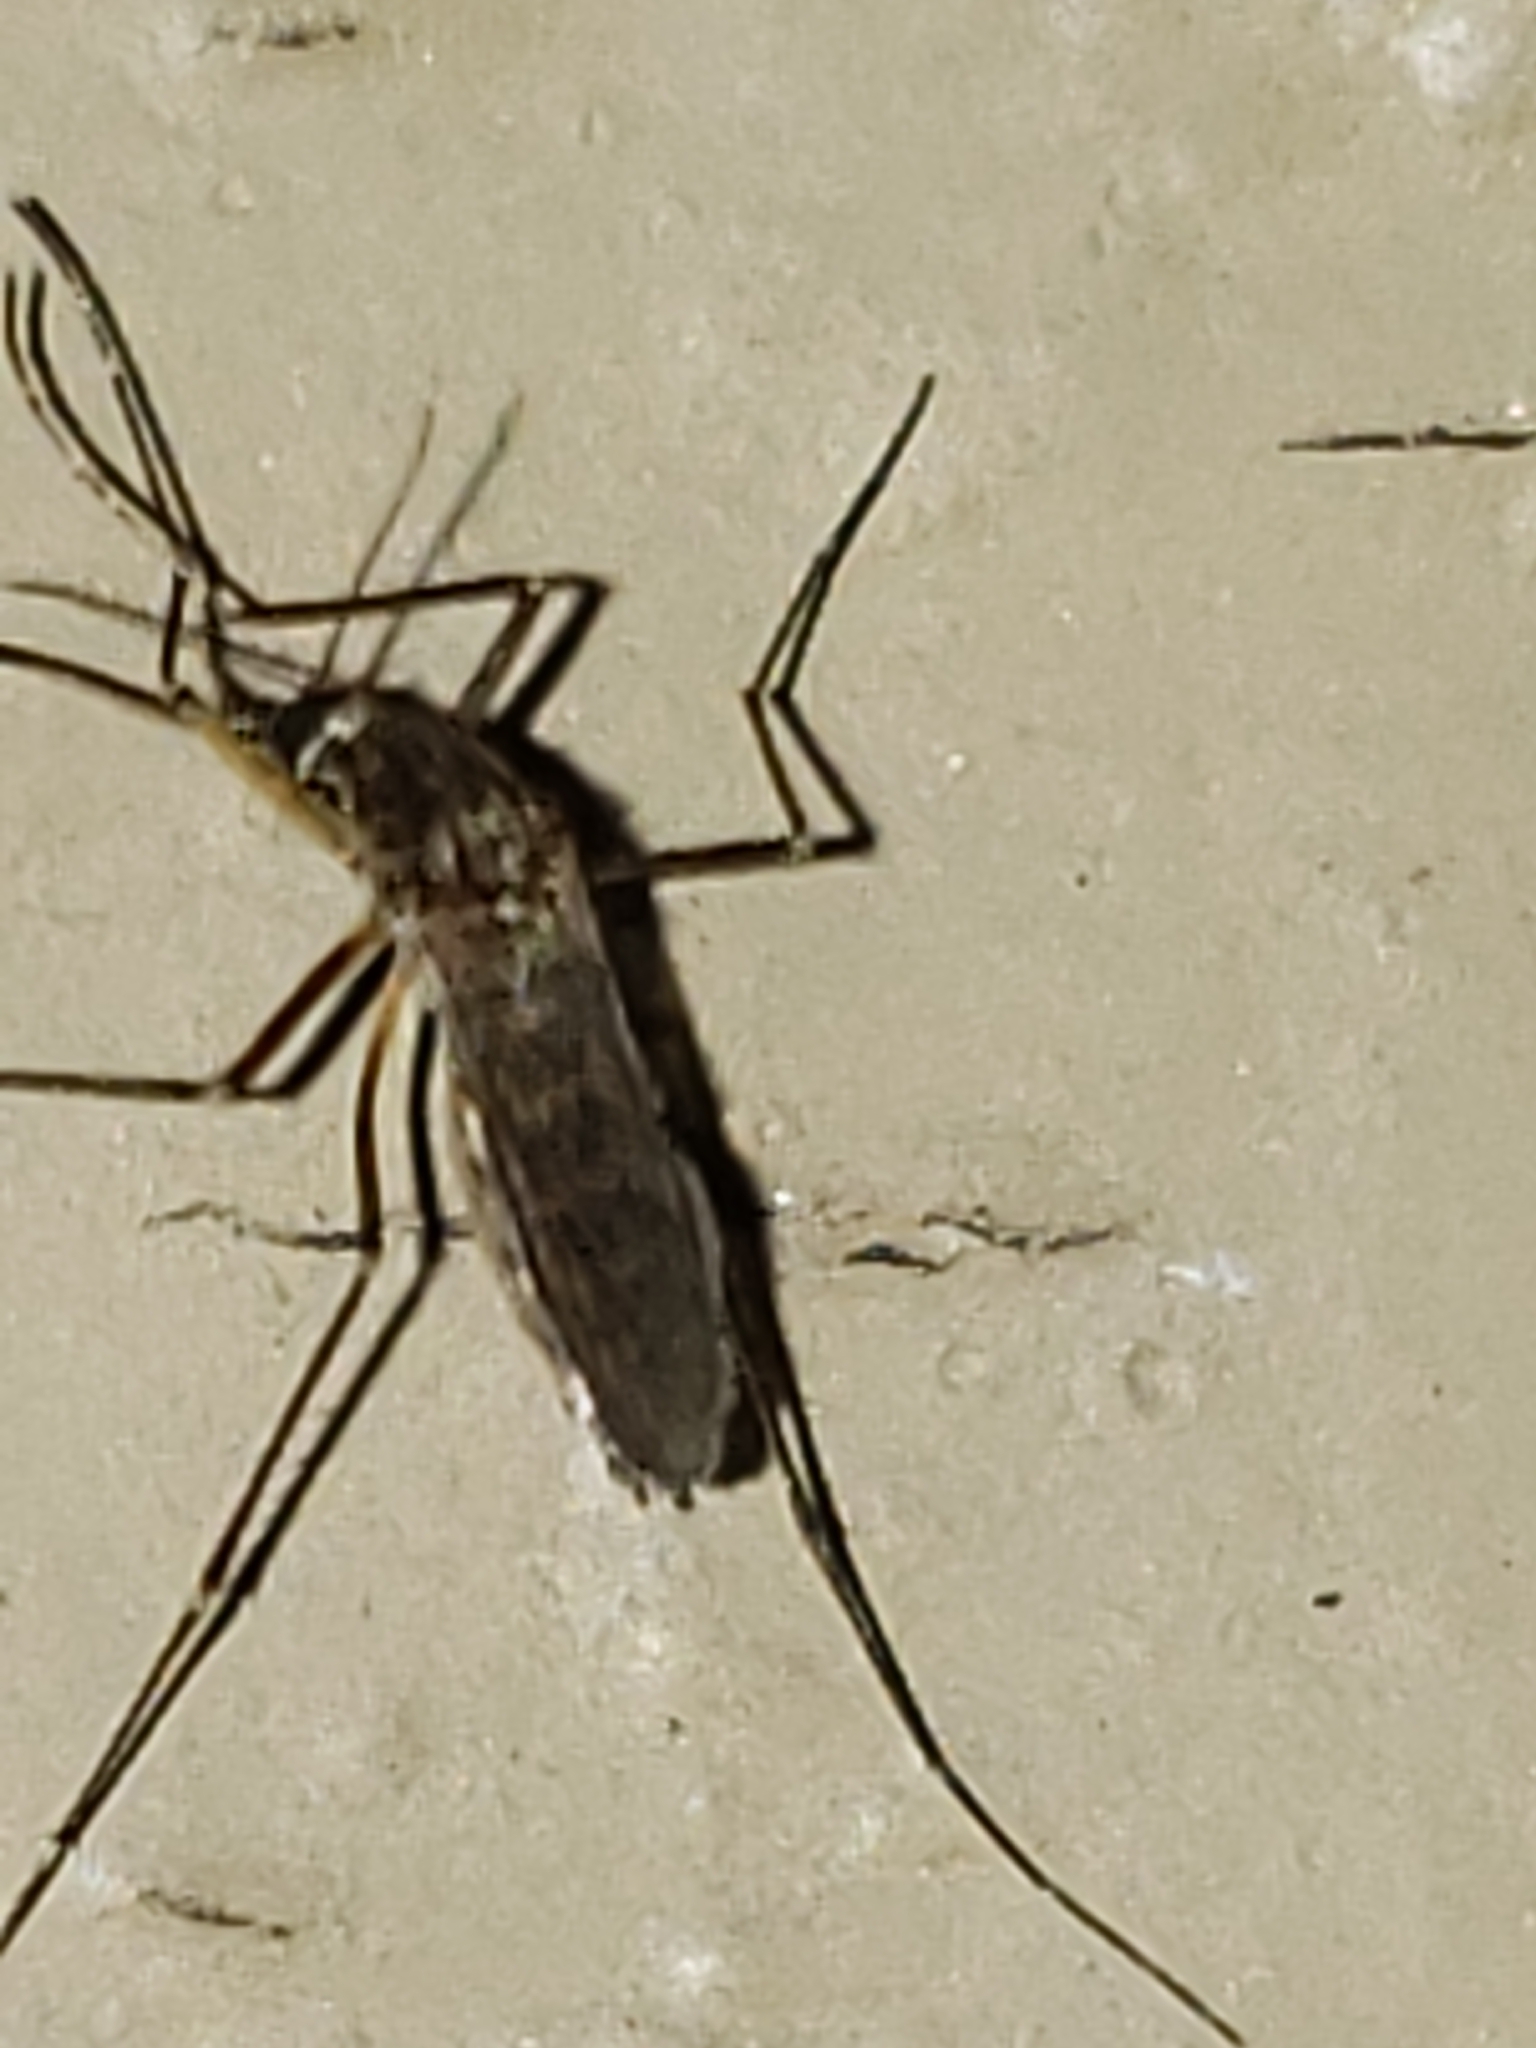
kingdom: Animalia
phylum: Arthropoda
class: Insecta
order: Diptera
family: Culicidae
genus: Aedes
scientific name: Aedes vexans
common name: Inland floodwater mosquito
